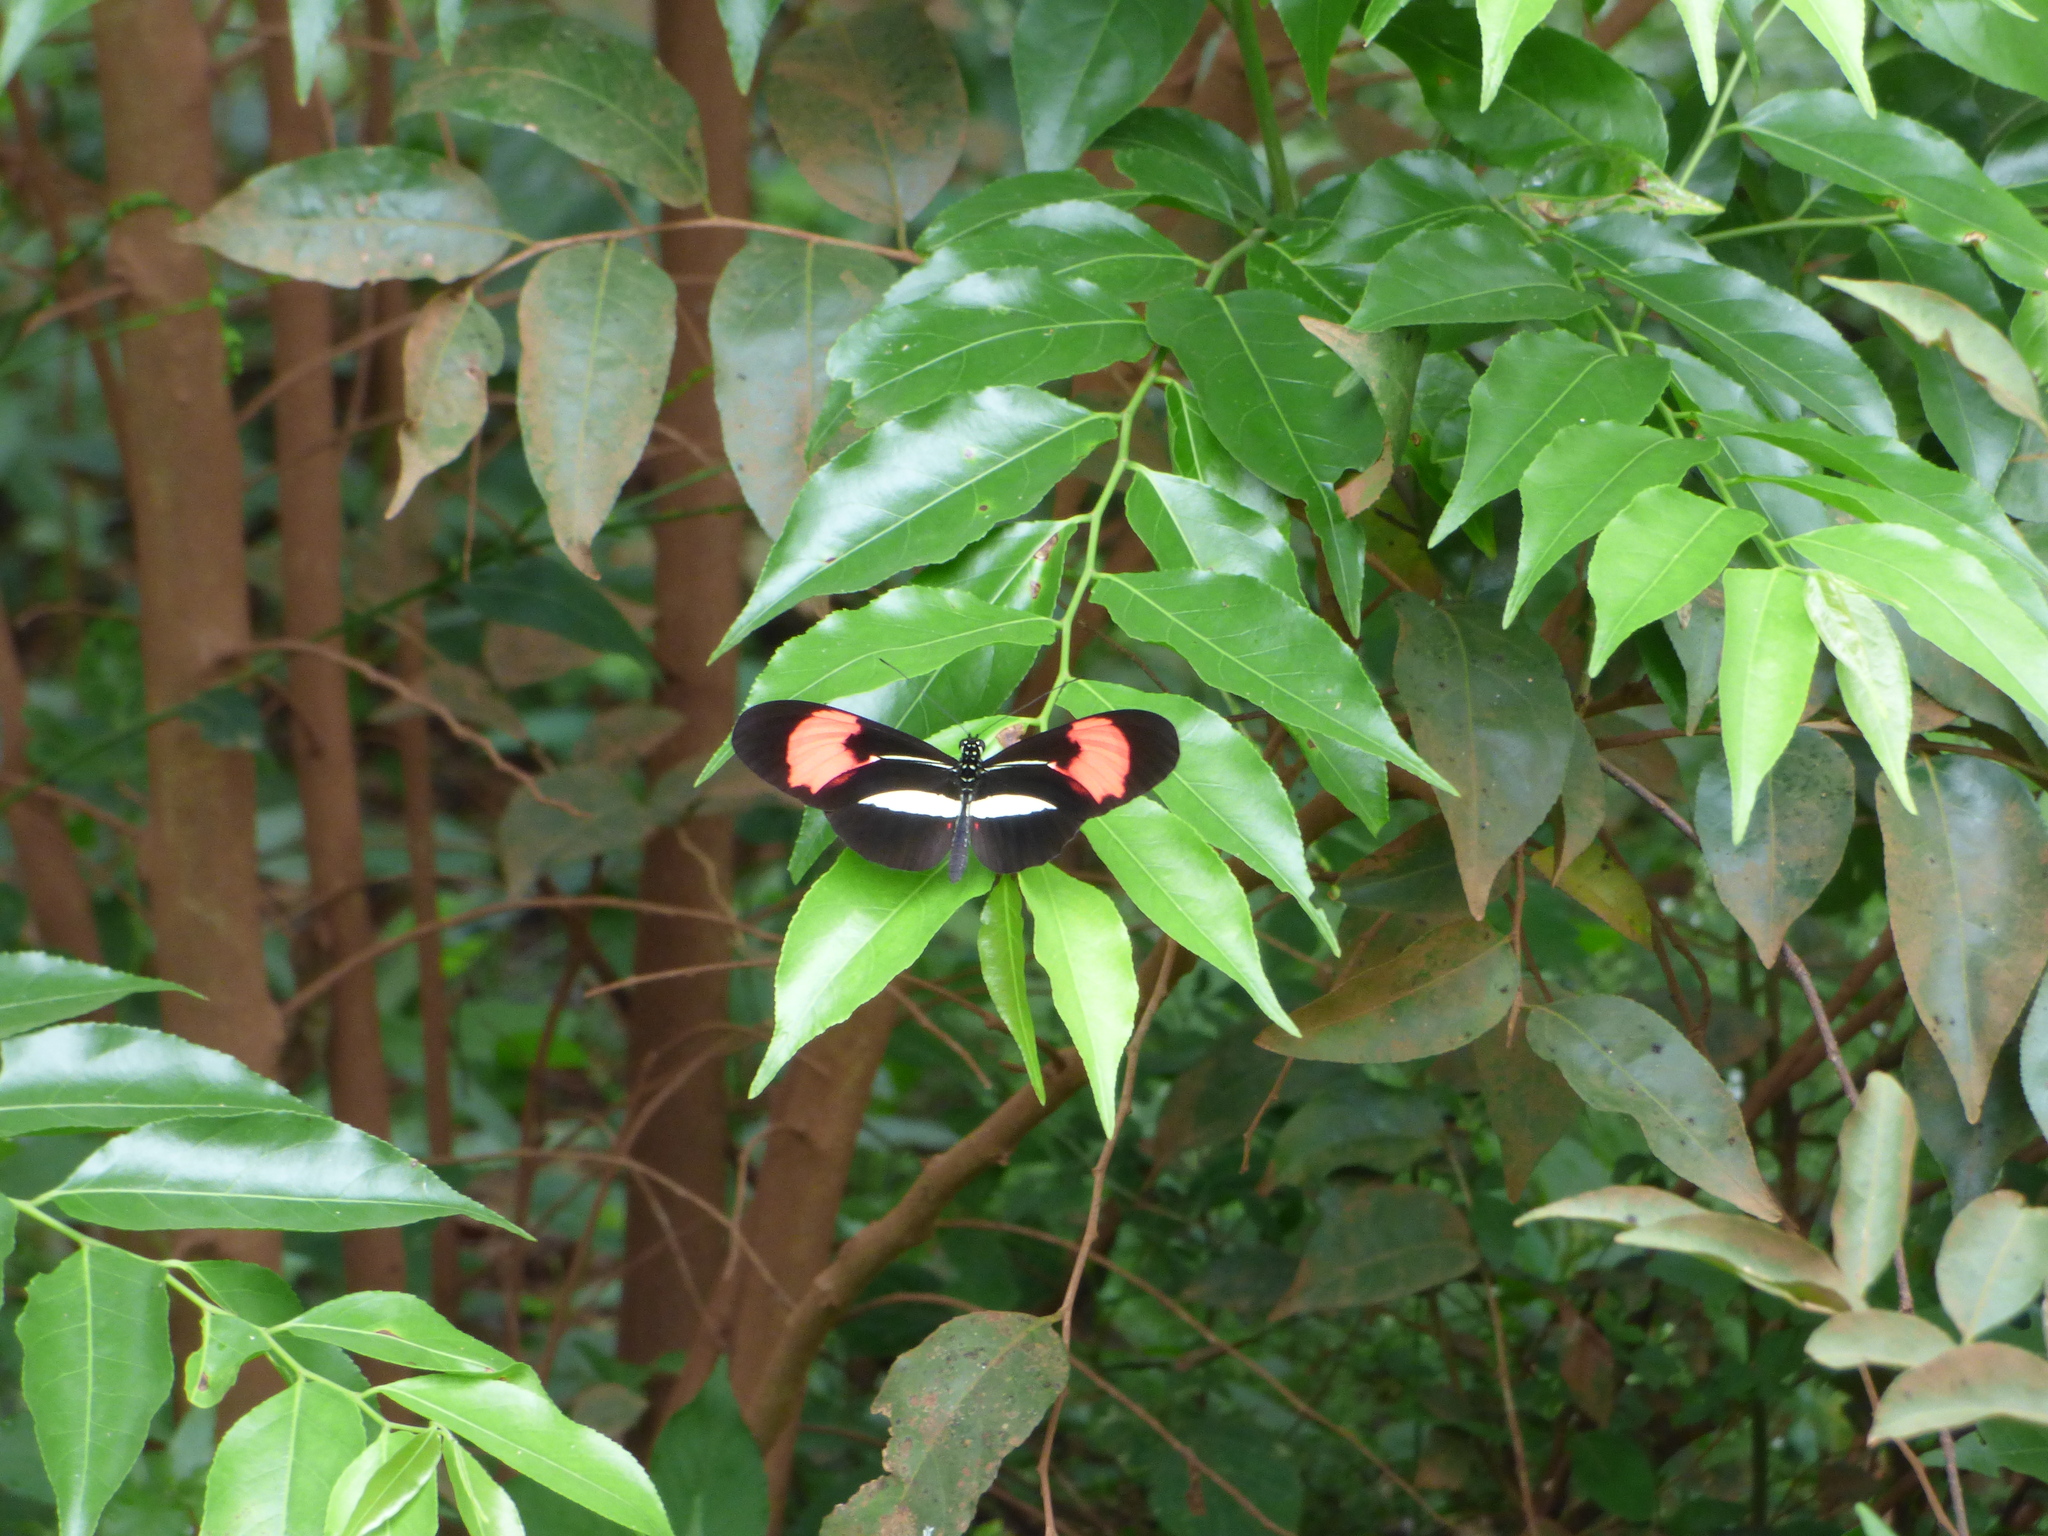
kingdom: Animalia
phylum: Arthropoda
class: Insecta
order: Lepidoptera
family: Nymphalidae
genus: Heliconius
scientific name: Heliconius erato
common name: Common patch longwing
